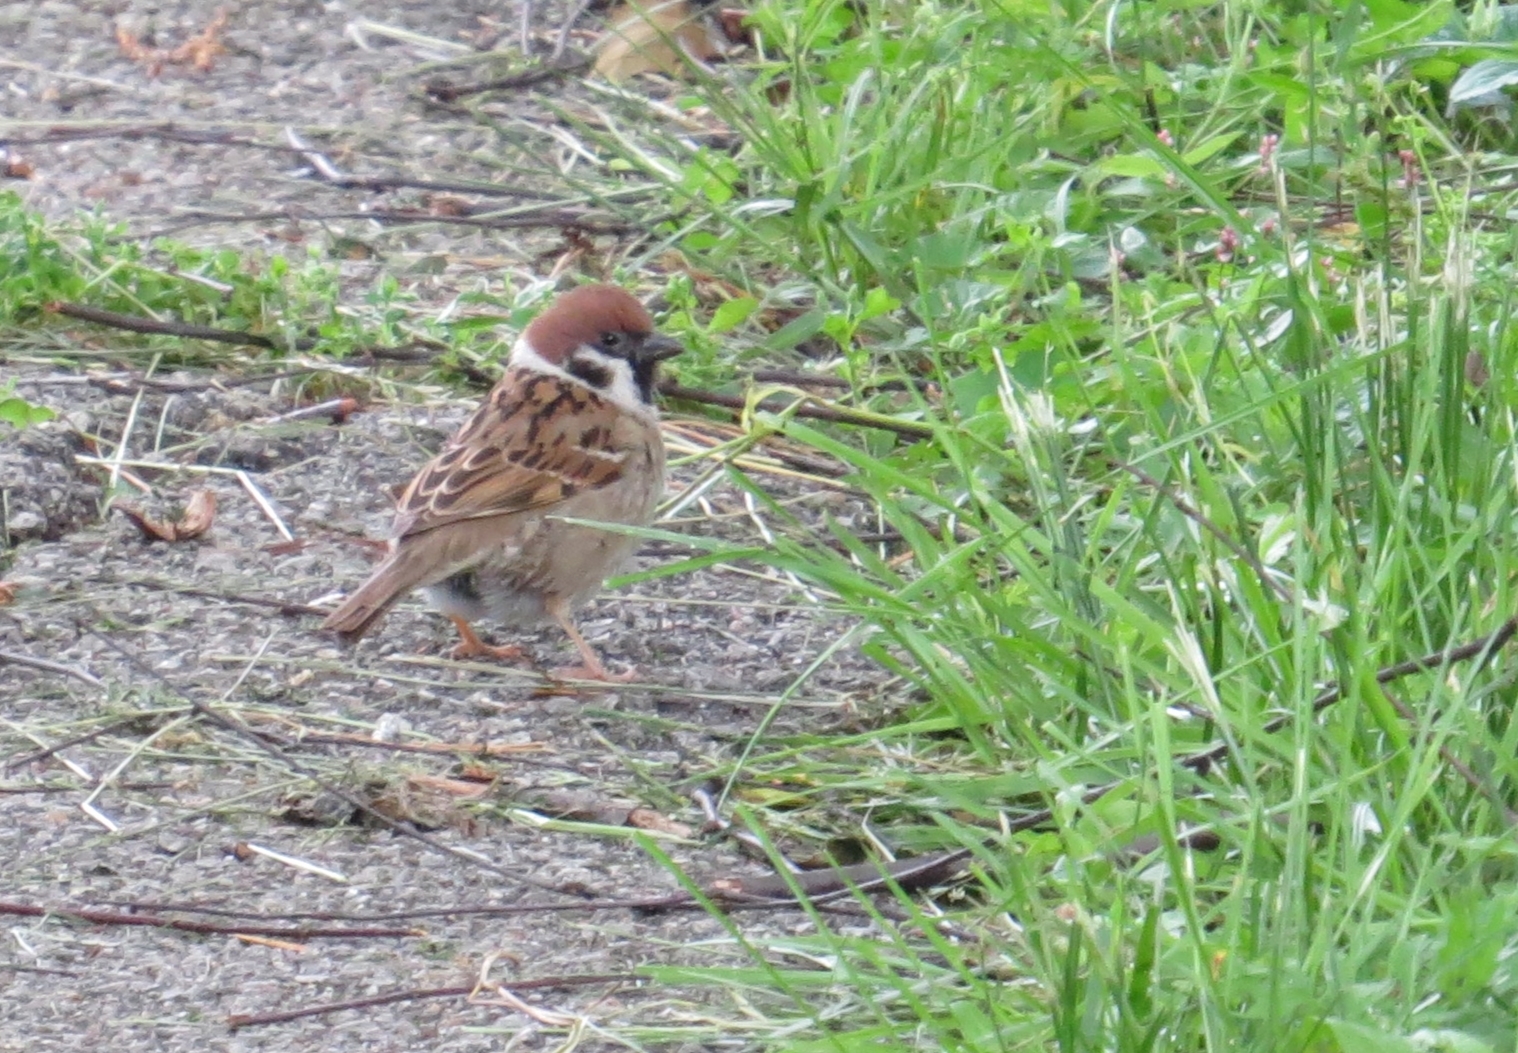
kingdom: Animalia
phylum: Chordata
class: Aves
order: Passeriformes
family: Passeridae
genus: Passer
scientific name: Passer montanus
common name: Eurasian tree sparrow
